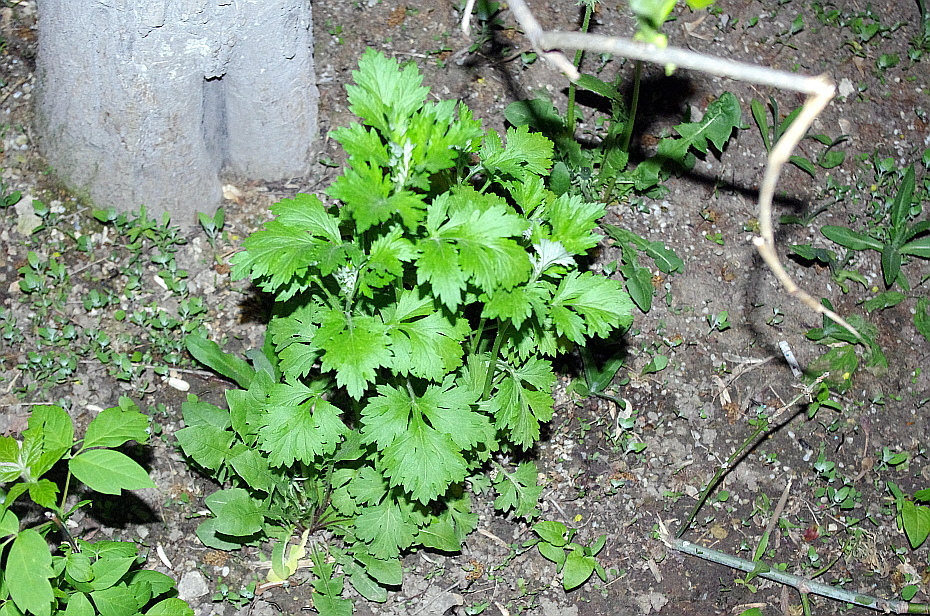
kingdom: Plantae
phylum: Tracheophyta
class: Magnoliopsida
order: Asterales
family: Asteraceae
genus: Artemisia
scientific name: Artemisia vulgaris
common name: Mugwort
